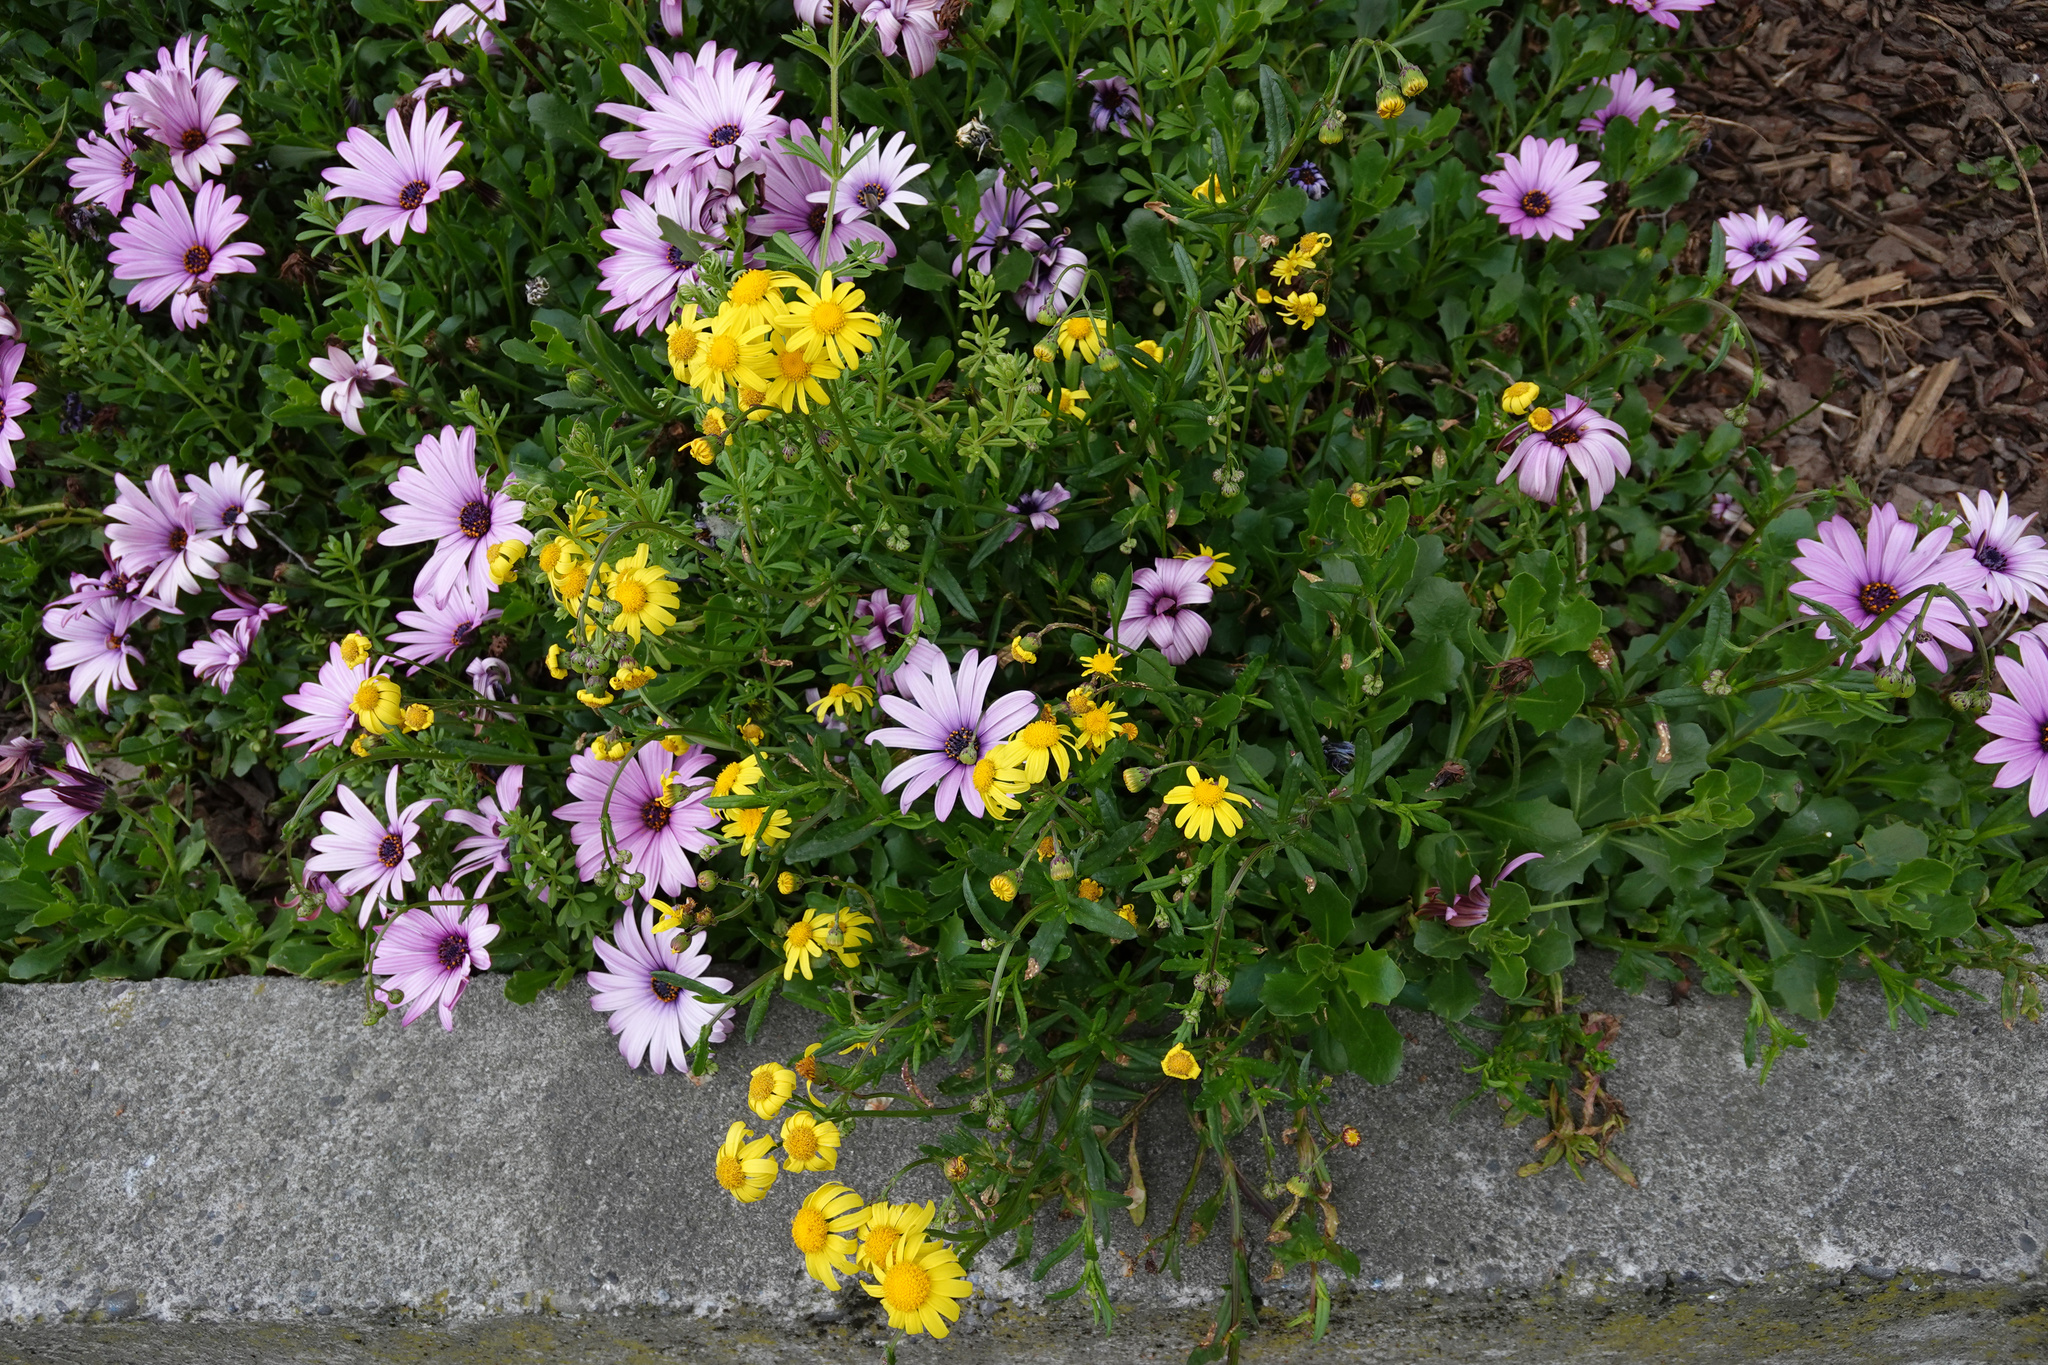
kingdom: Plantae
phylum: Tracheophyta
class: Magnoliopsida
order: Asterales
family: Asteraceae
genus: Senecio
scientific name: Senecio skirrhodon
